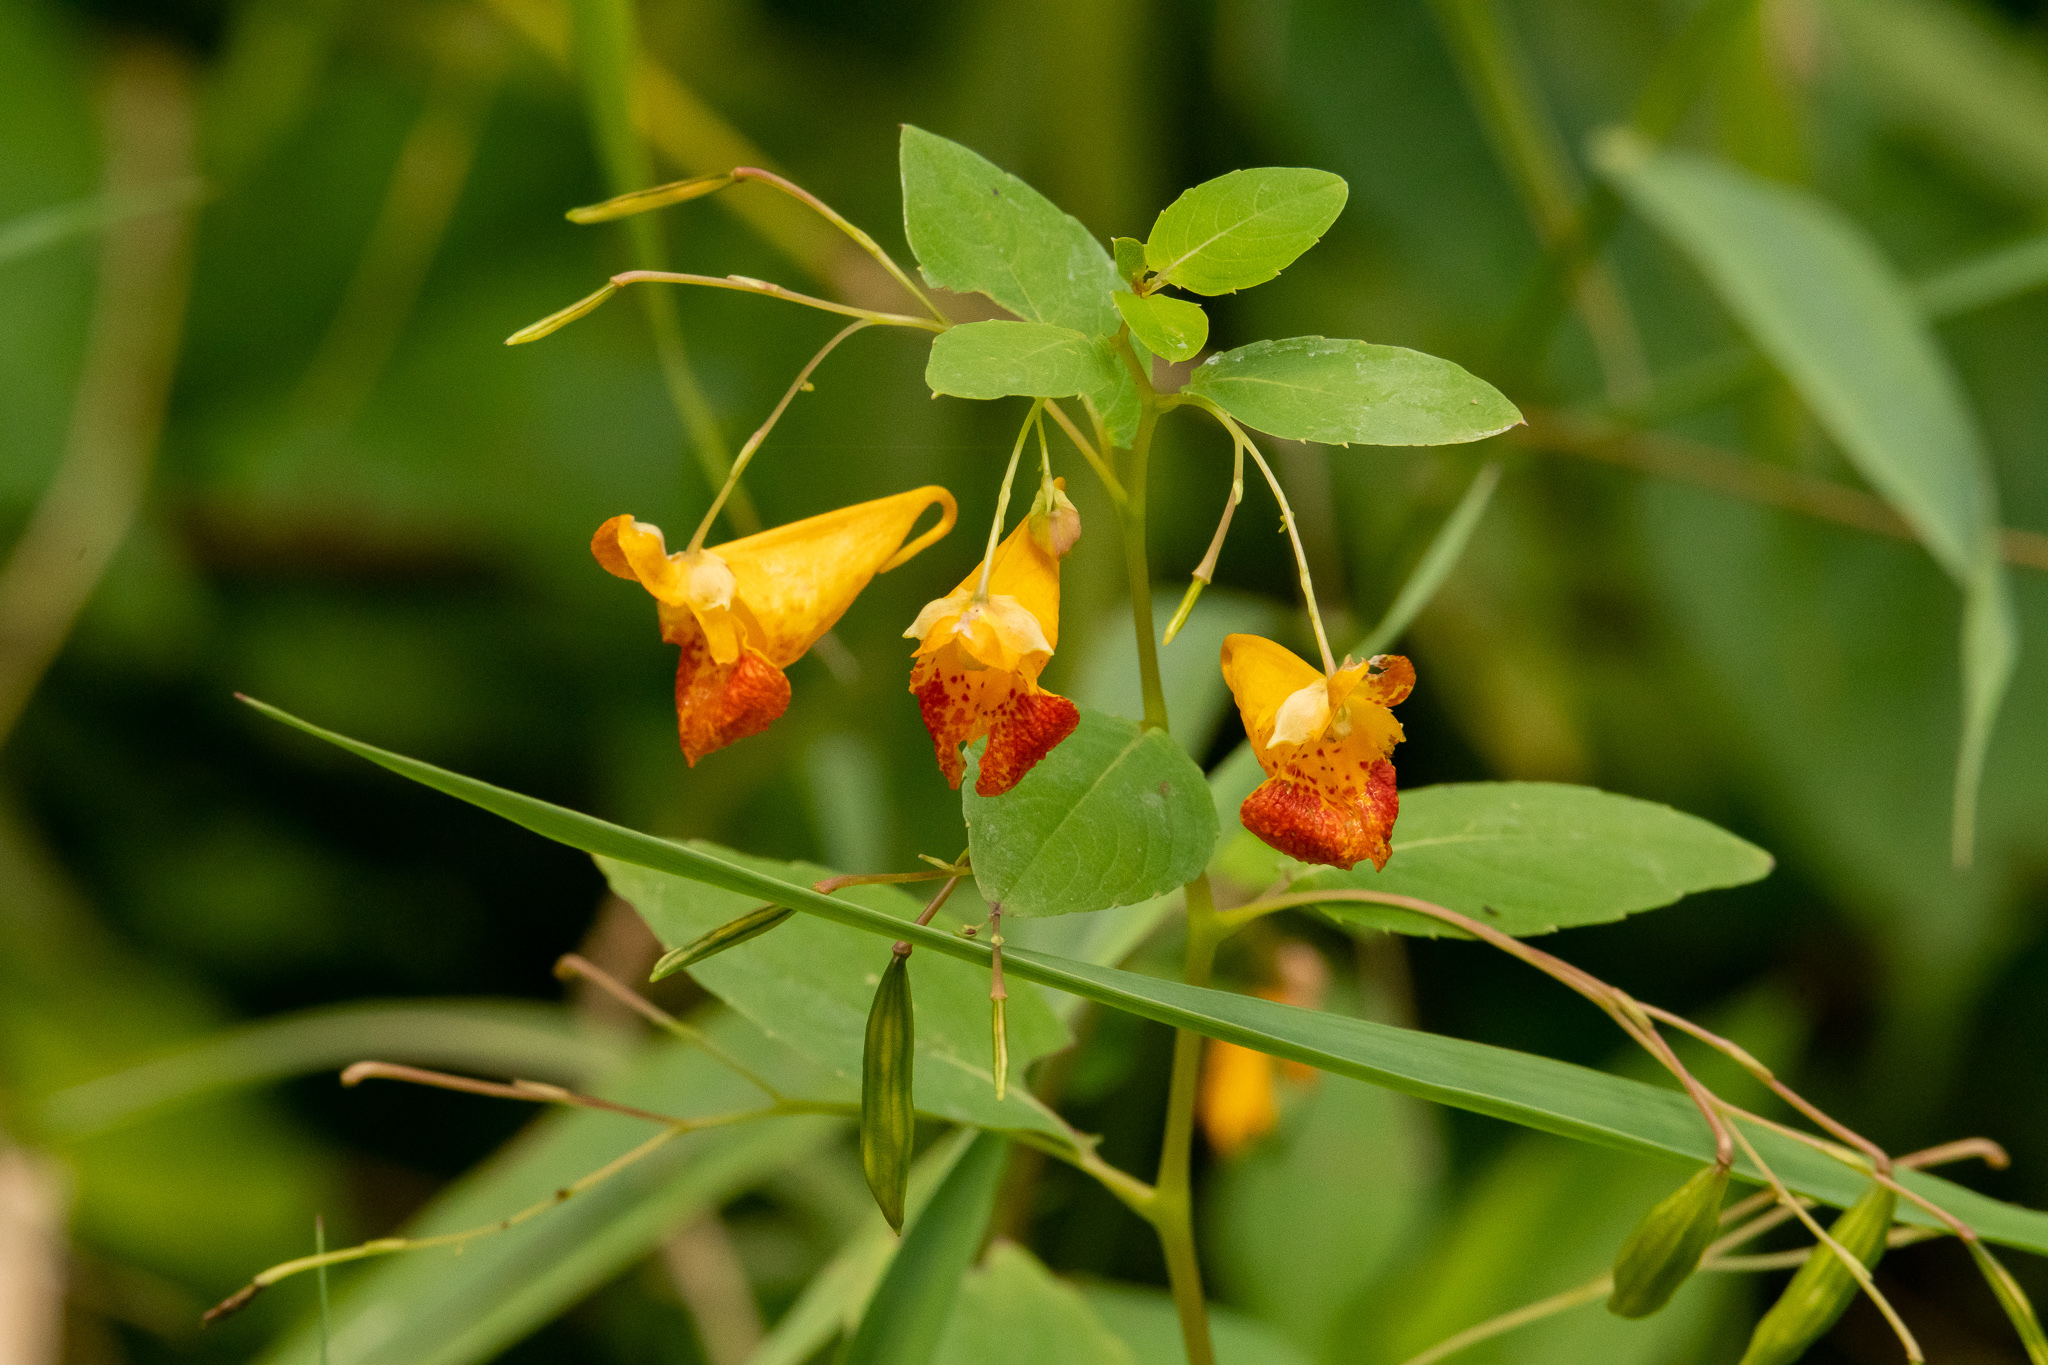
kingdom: Plantae
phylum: Tracheophyta
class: Magnoliopsida
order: Ericales
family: Balsaminaceae
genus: Impatiens
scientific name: Impatiens capensis
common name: Orange balsam
